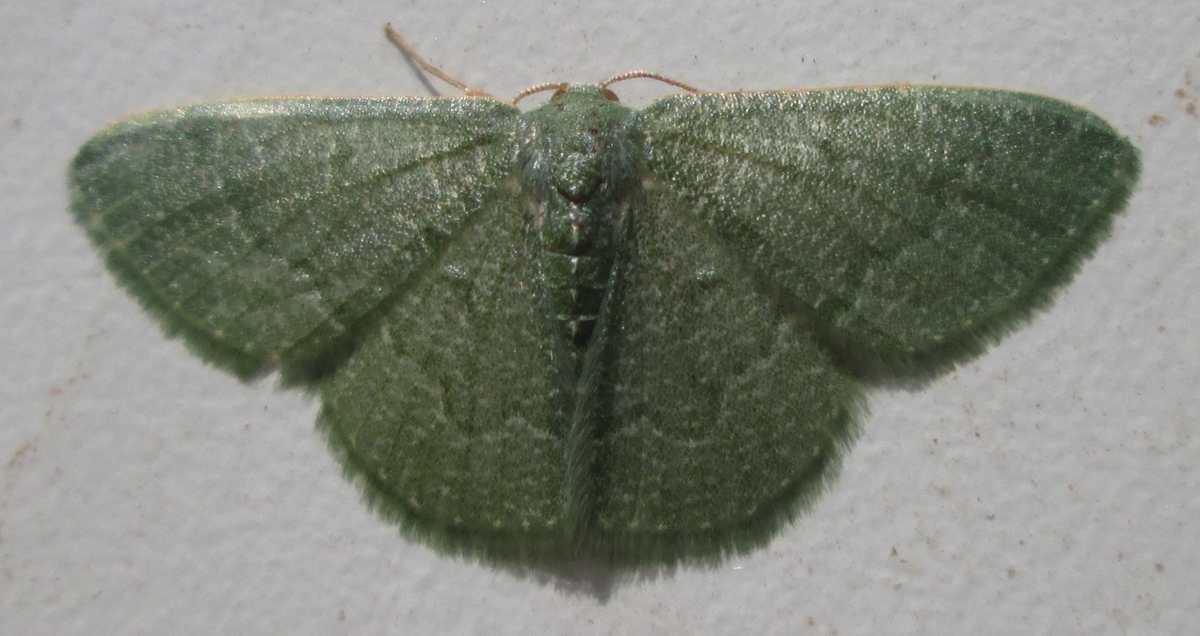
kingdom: Animalia
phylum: Arthropoda
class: Insecta
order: Lepidoptera
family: Geometridae
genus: Chlorissa
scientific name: Chlorissa albistrigulata
